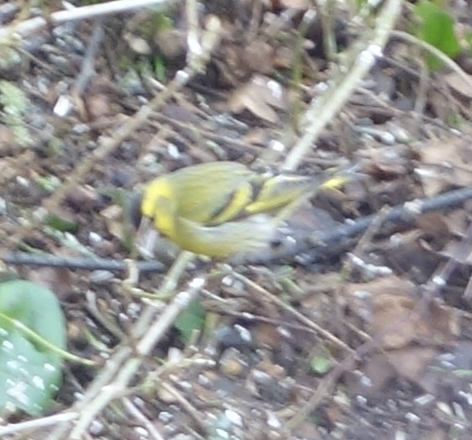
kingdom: Animalia
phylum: Chordata
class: Aves
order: Passeriformes
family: Fringillidae
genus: Spinus
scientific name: Spinus spinus
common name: Eurasian siskin
